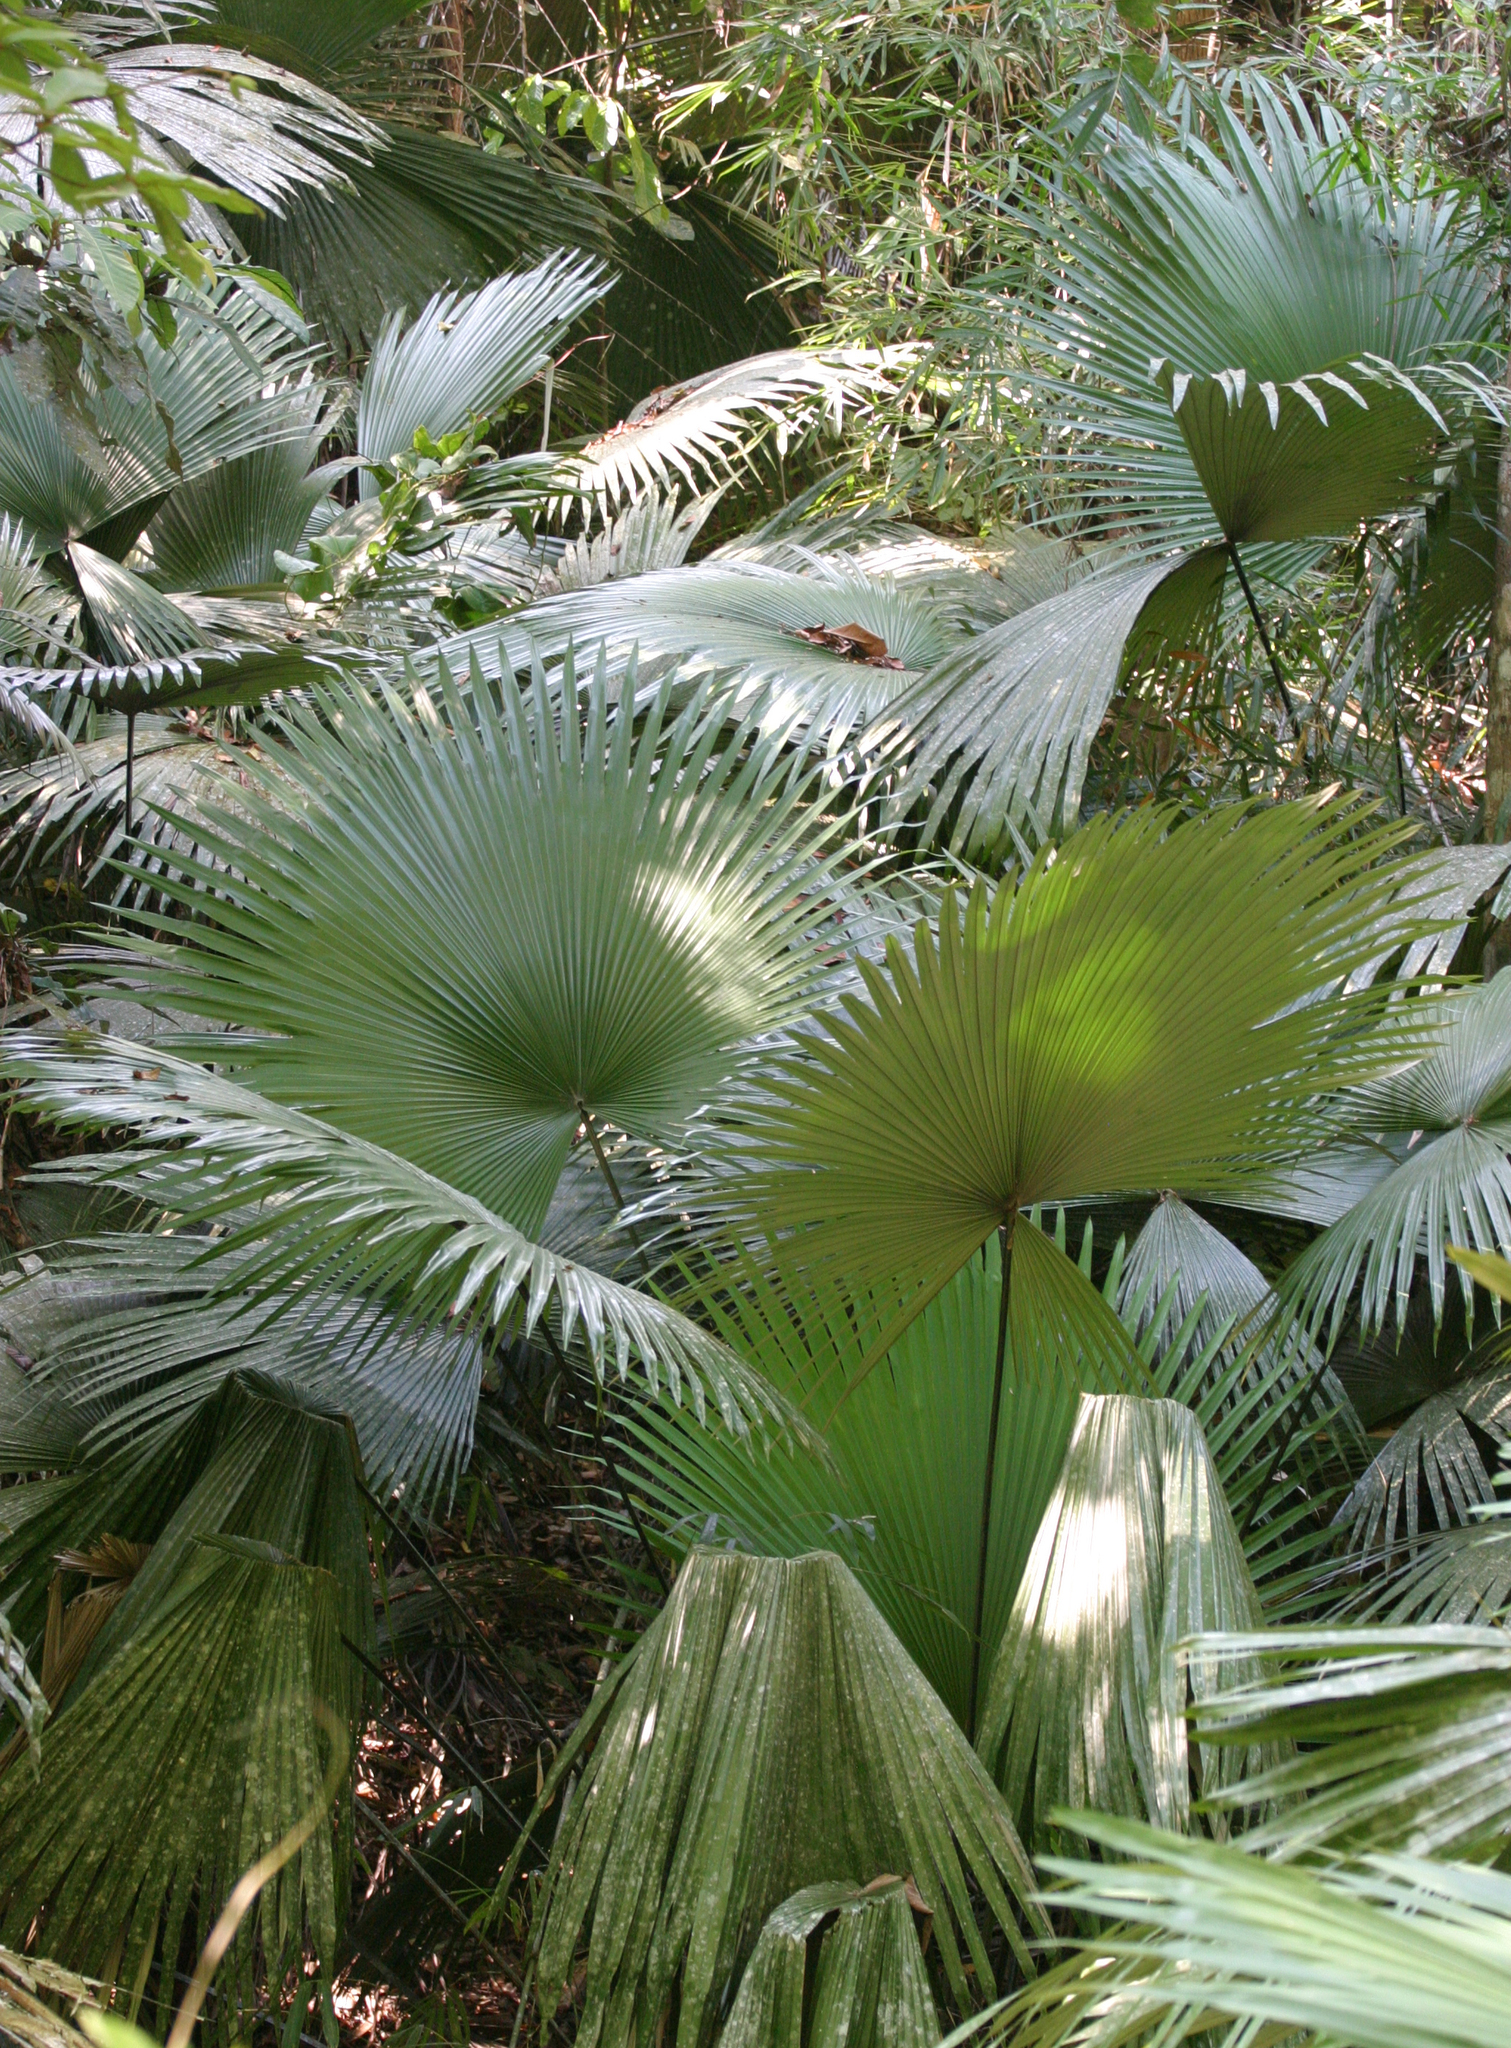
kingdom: Plantae
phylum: Tracheophyta
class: Liliopsida
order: Arecales
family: Arecaceae
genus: Kerriodoxa
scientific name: Kerriodoxa elegans
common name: Elephant palm
